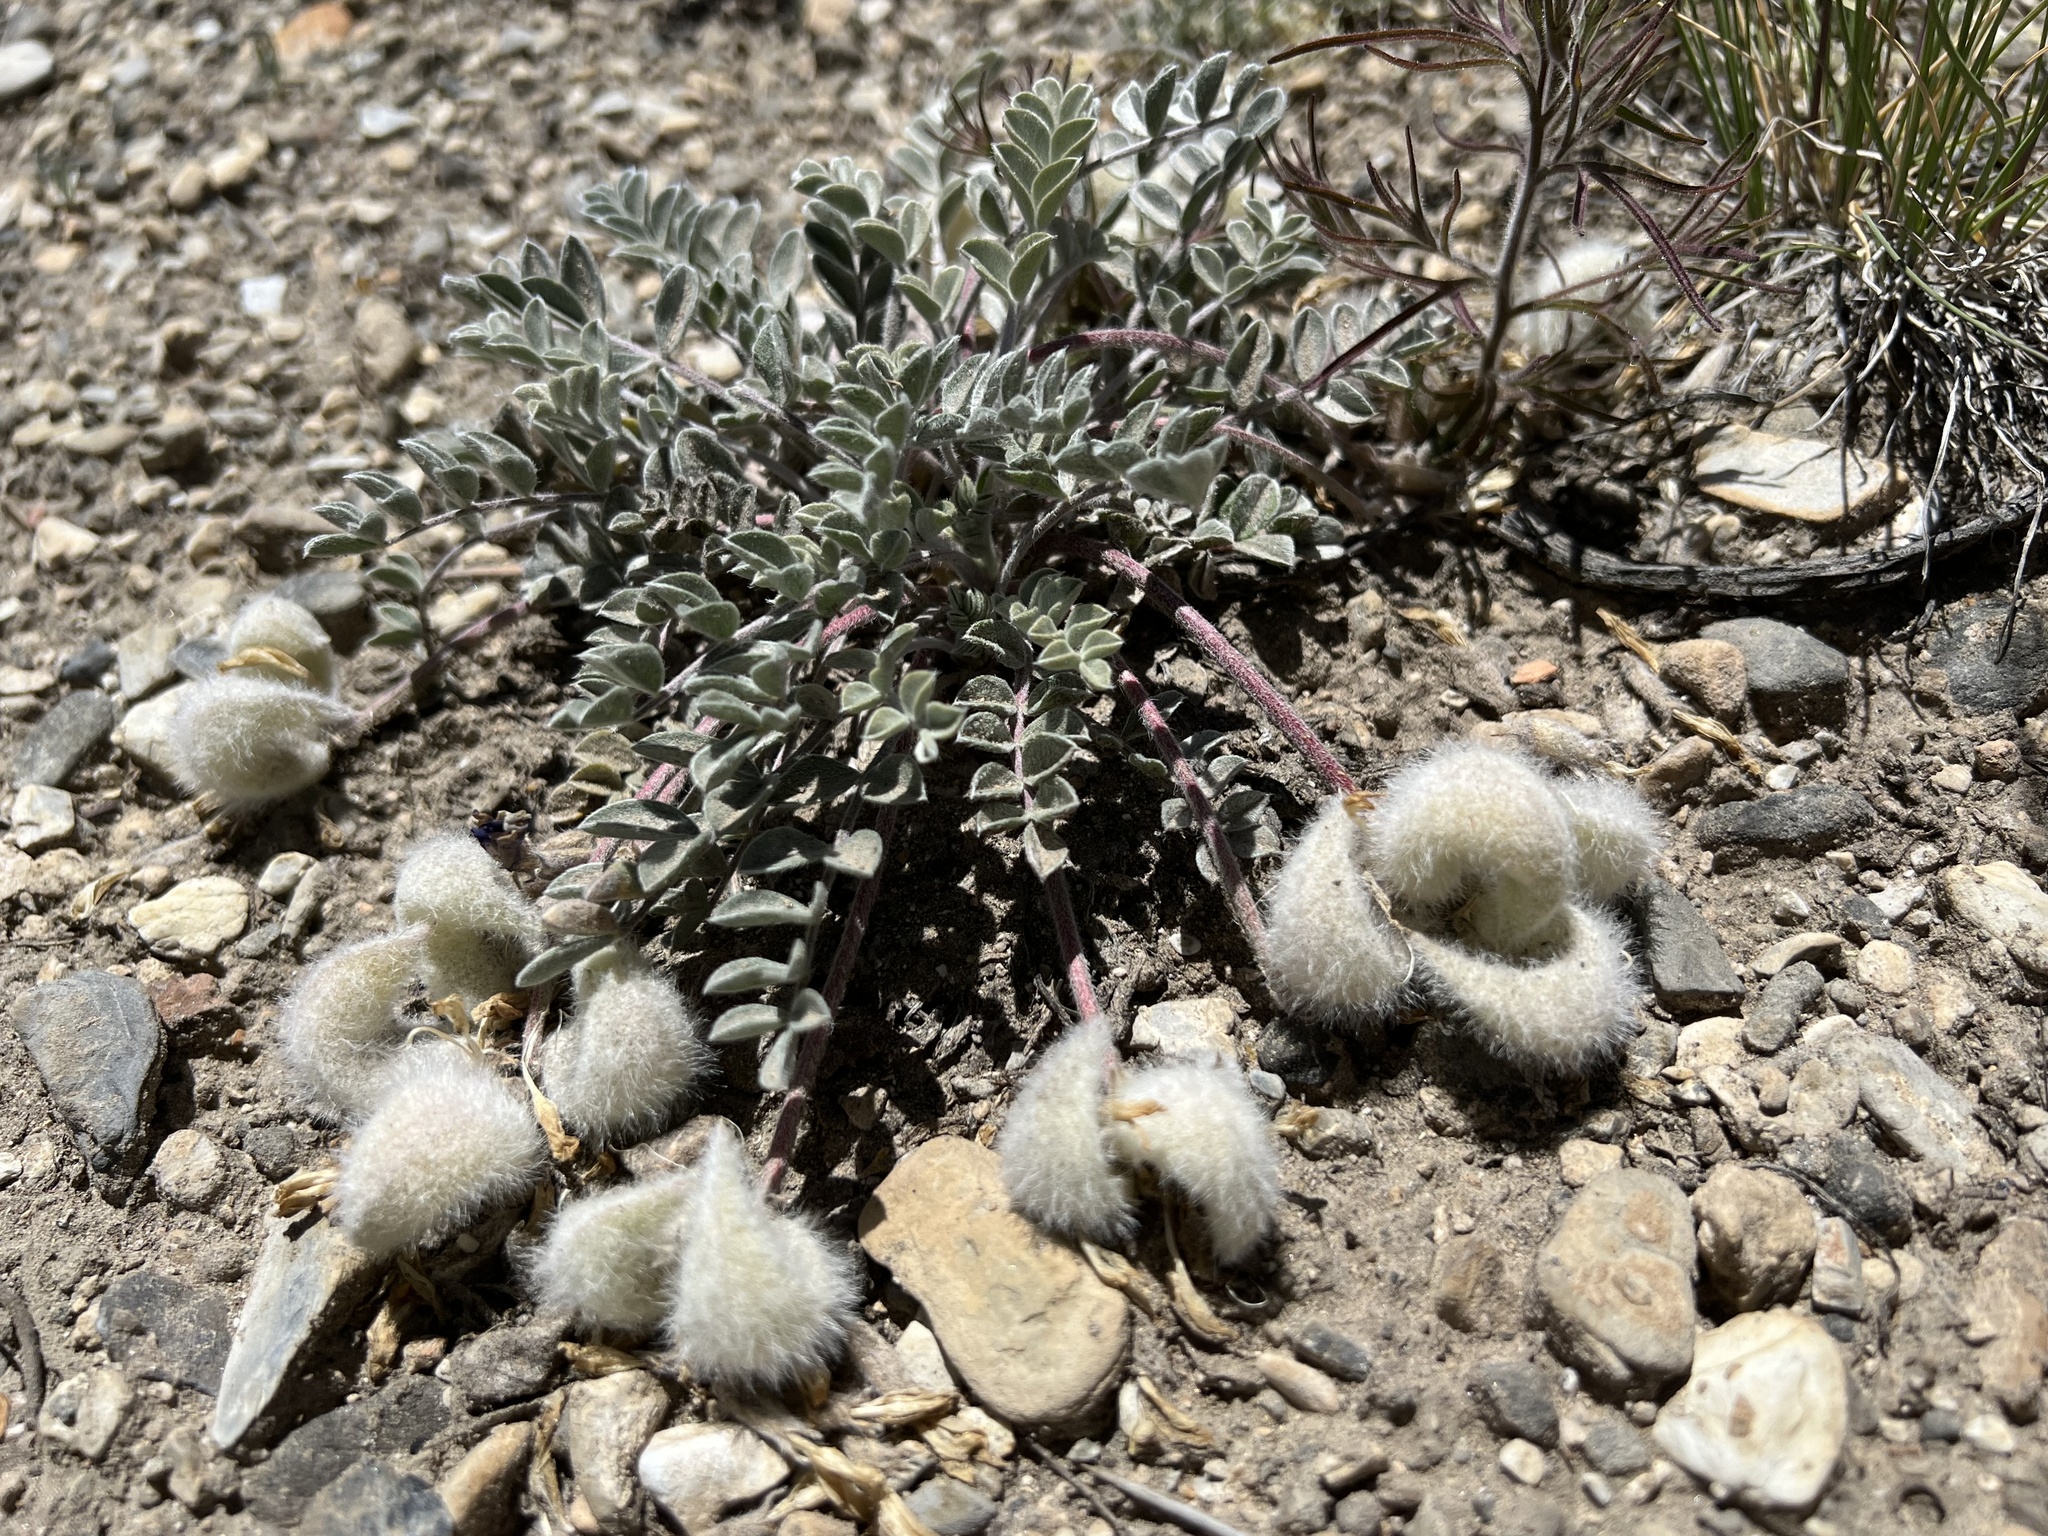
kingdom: Plantae
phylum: Tracheophyta
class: Magnoliopsida
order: Fabales
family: Fabaceae
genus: Astragalus
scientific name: Astragalus newberryi
